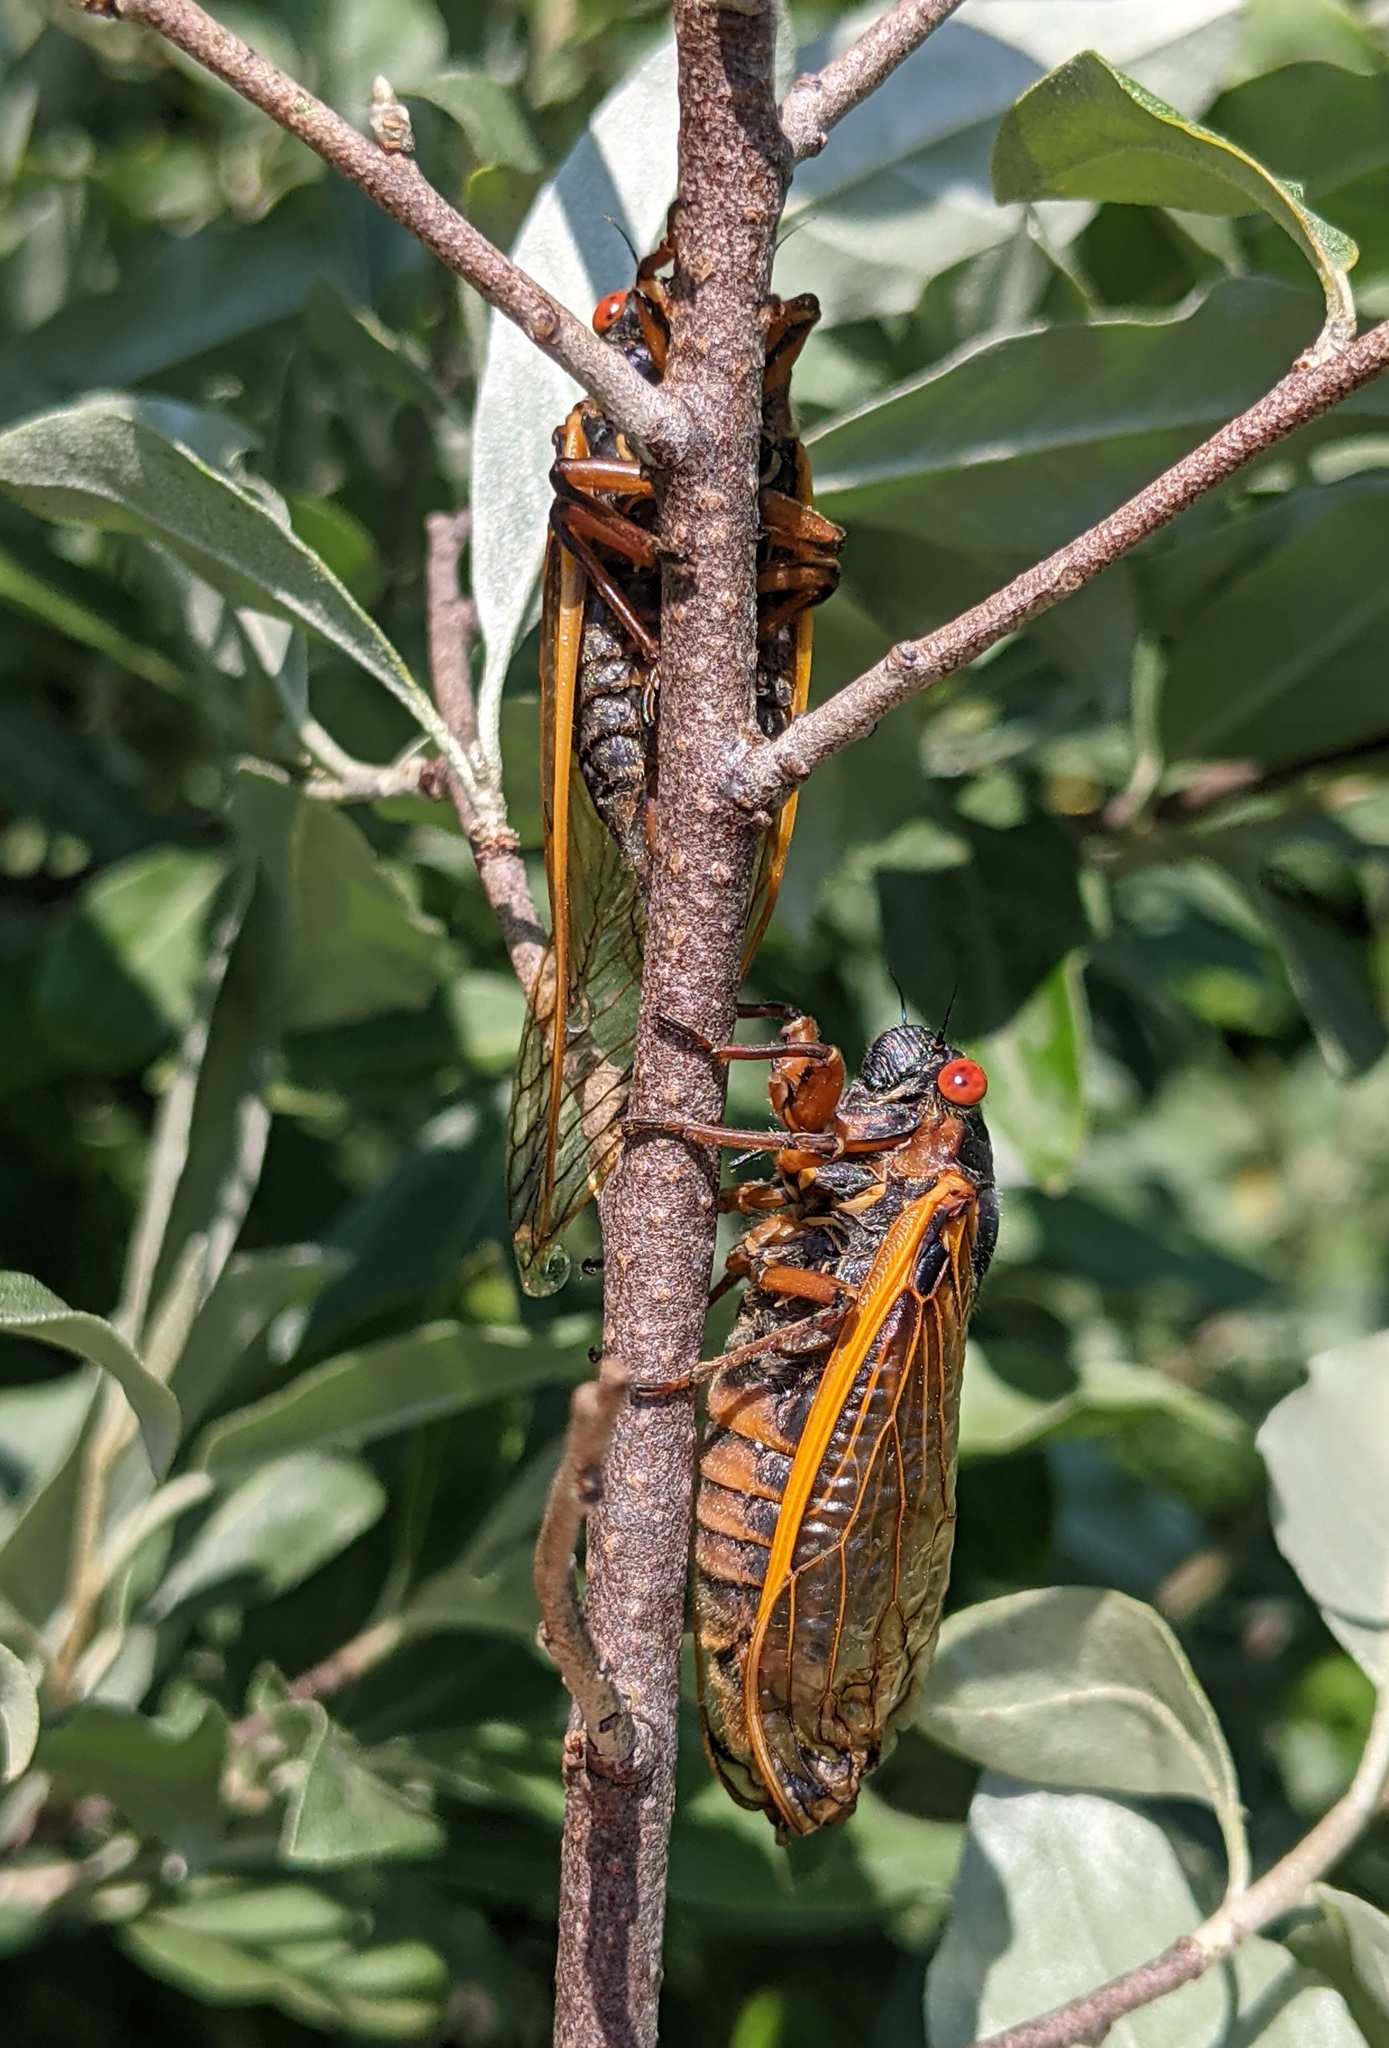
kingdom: Animalia
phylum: Arthropoda
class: Insecta
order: Hemiptera
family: Cicadidae
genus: Magicicada
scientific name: Magicicada septendecim
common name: Periodical cicada
